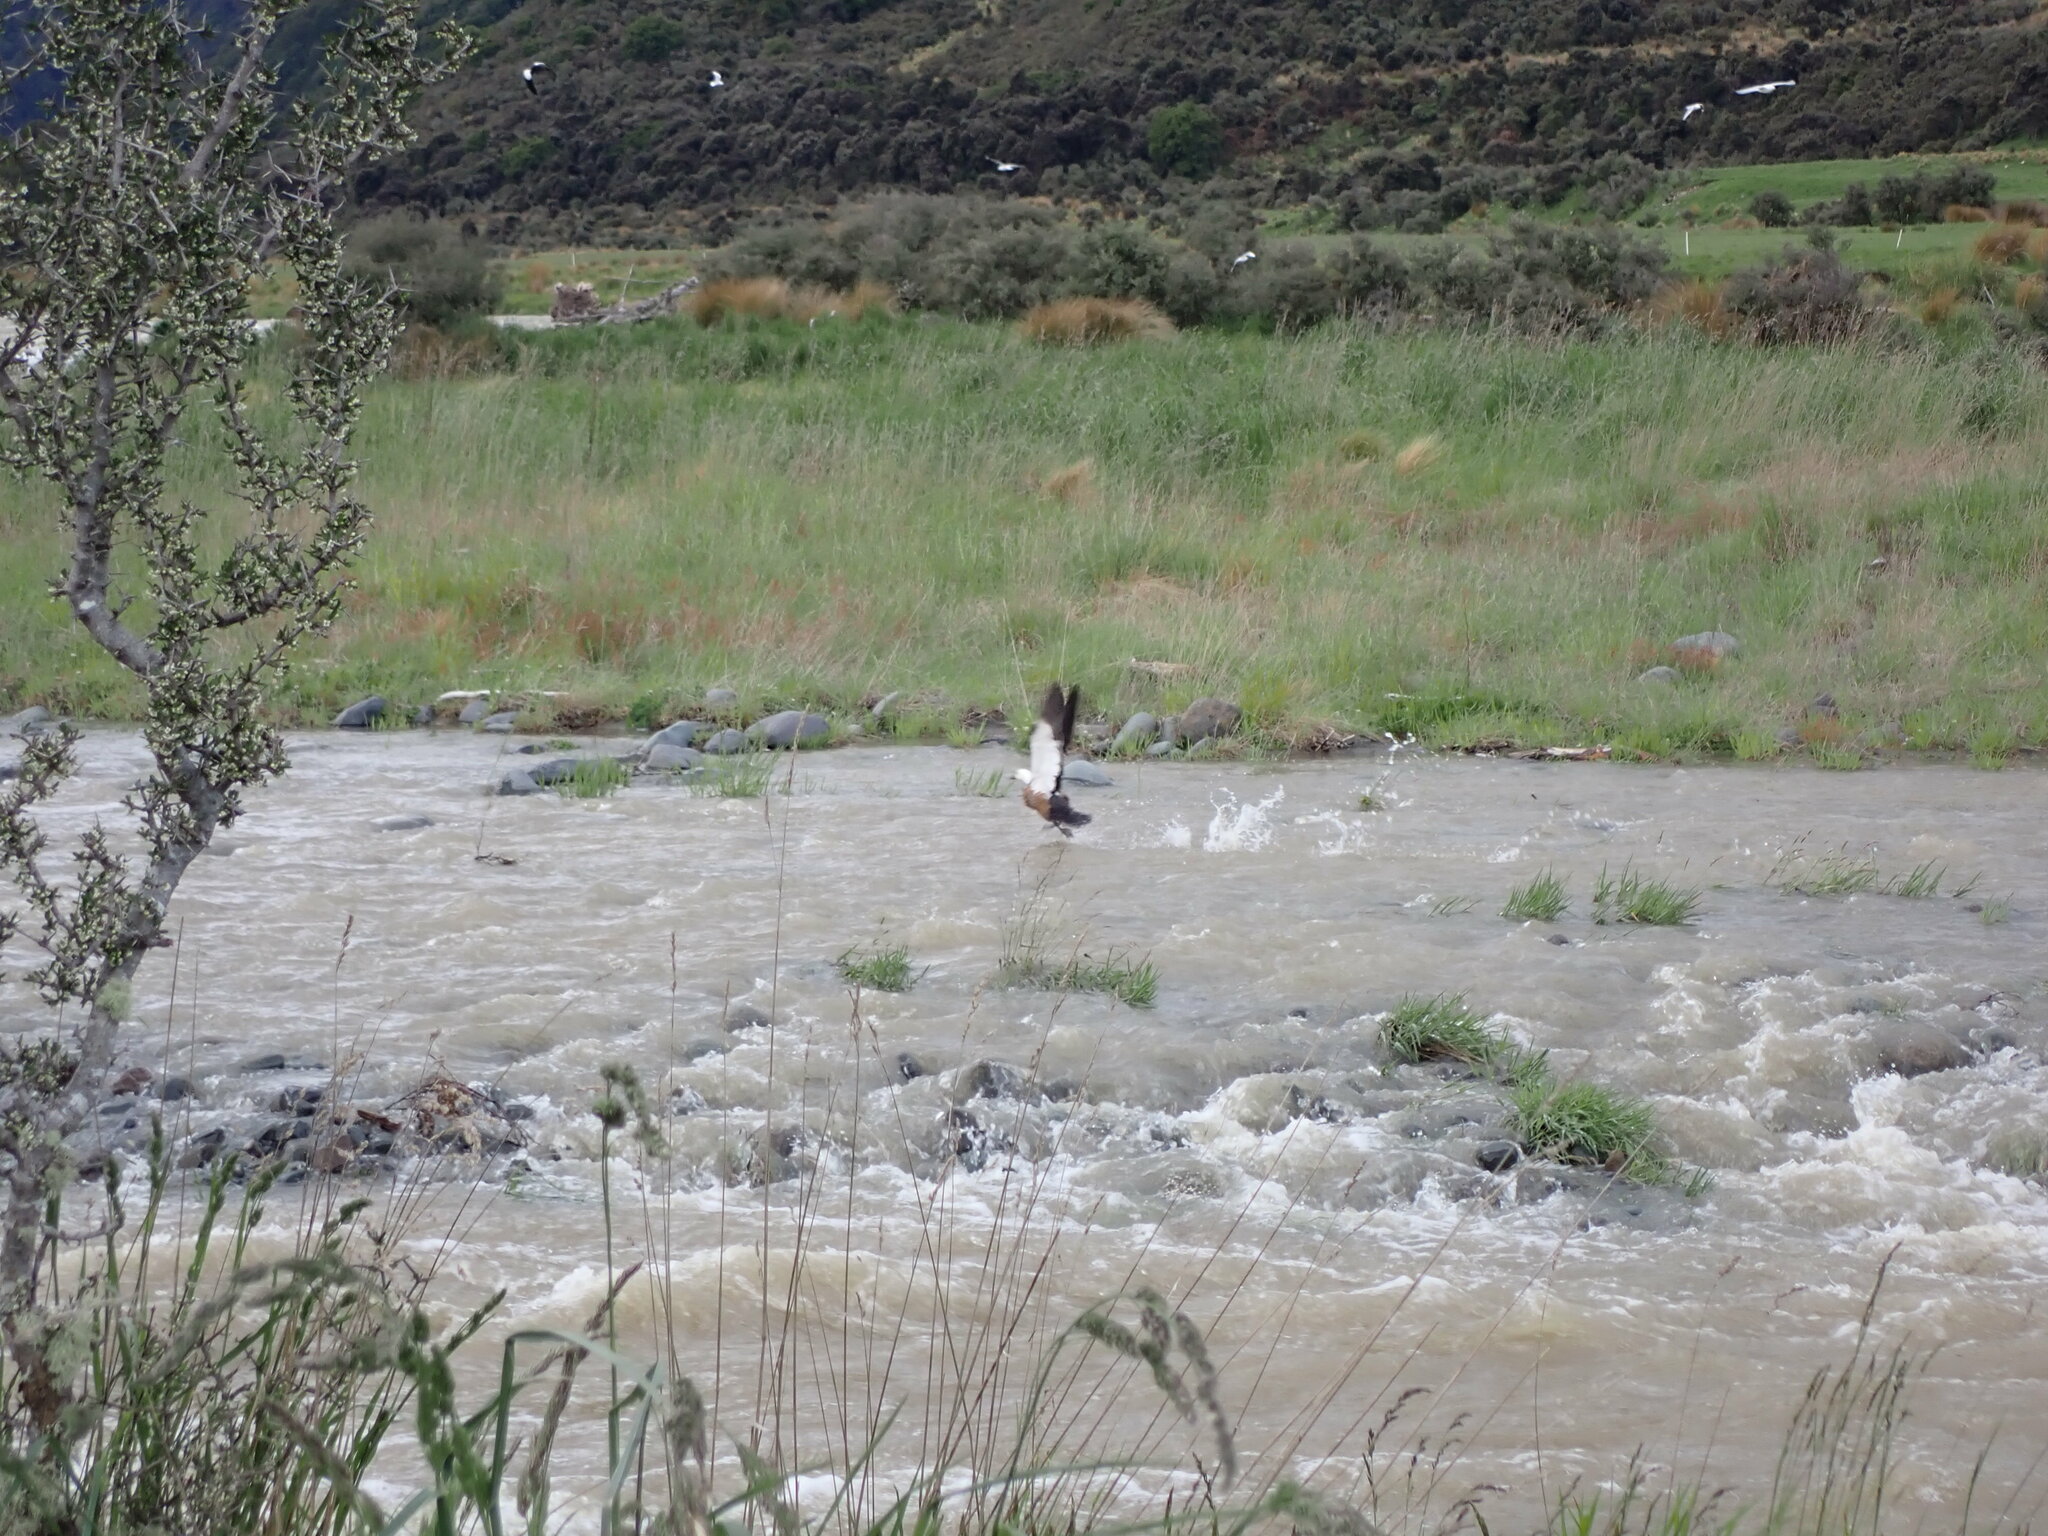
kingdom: Animalia
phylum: Chordata
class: Aves
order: Anseriformes
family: Anatidae
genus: Tadorna
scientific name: Tadorna variegata
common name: Paradise shelduck
